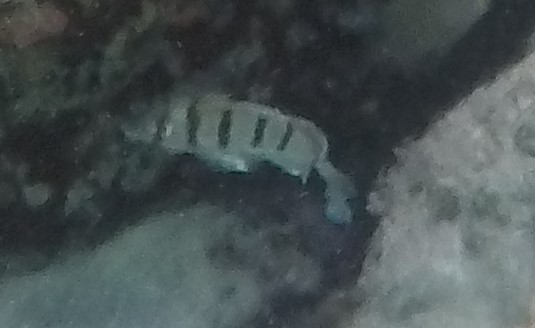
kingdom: Animalia
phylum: Chordata
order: Perciformes
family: Acanthuridae
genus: Acanthurus
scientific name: Acanthurus triostegus
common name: Convict surgeonfish
